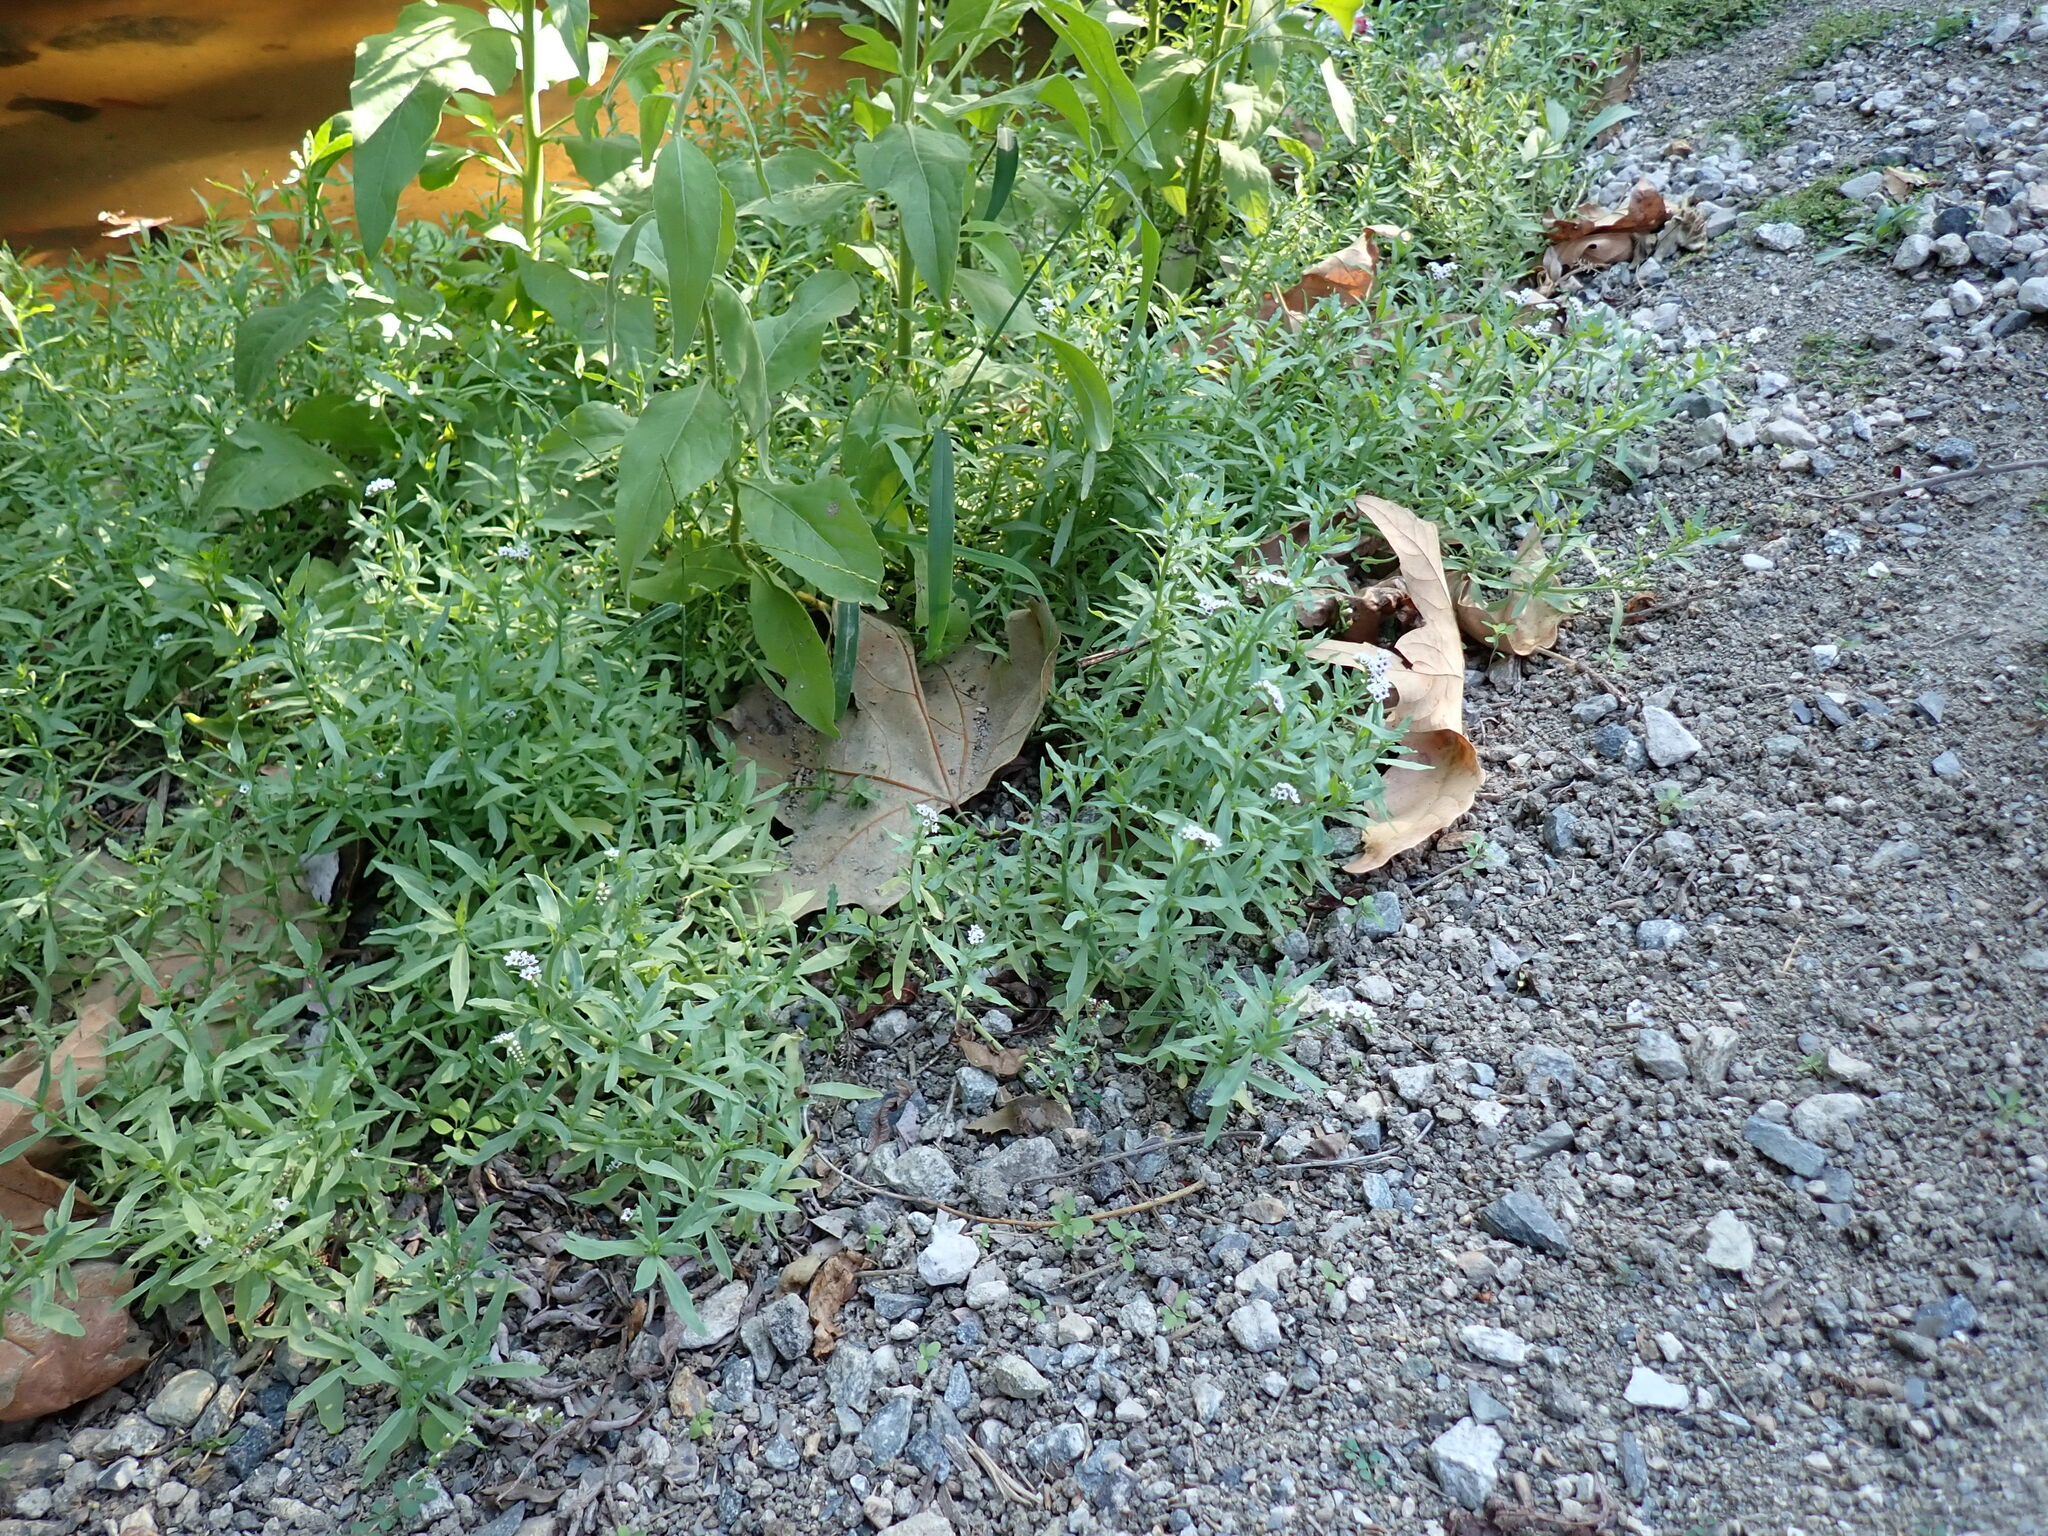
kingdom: Plantae
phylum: Tracheophyta
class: Magnoliopsida
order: Boraginales
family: Heliotropiaceae
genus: Heliotropium
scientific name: Heliotropium curassavicum
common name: Seaside heliotrope
